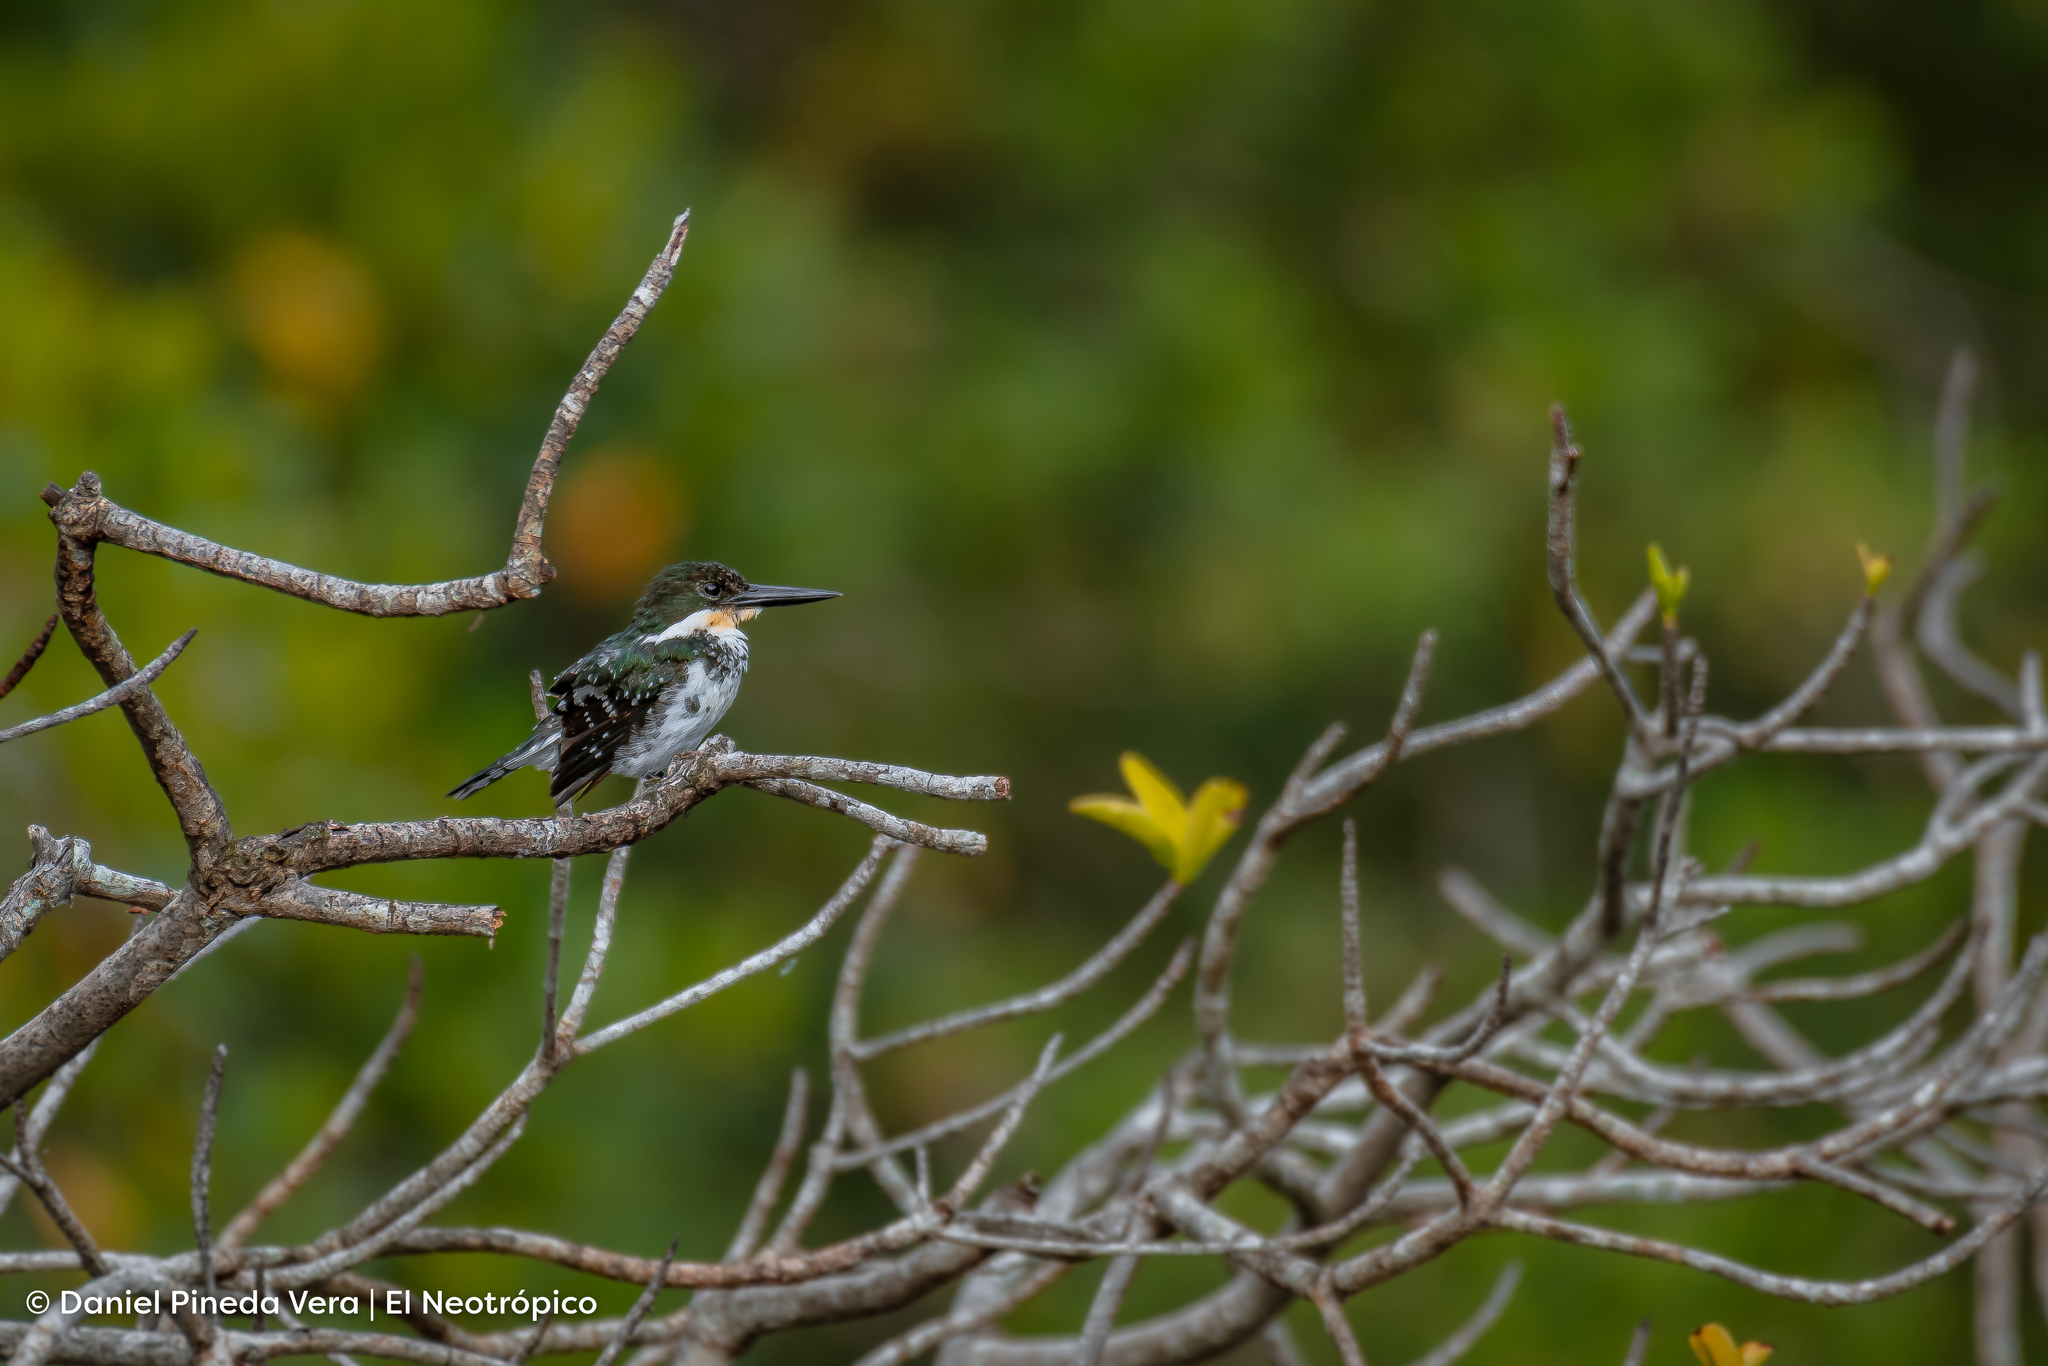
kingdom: Animalia
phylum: Chordata
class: Aves
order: Coraciiformes
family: Alcedinidae
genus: Chloroceryle
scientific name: Chloroceryle americana
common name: Green kingfisher
